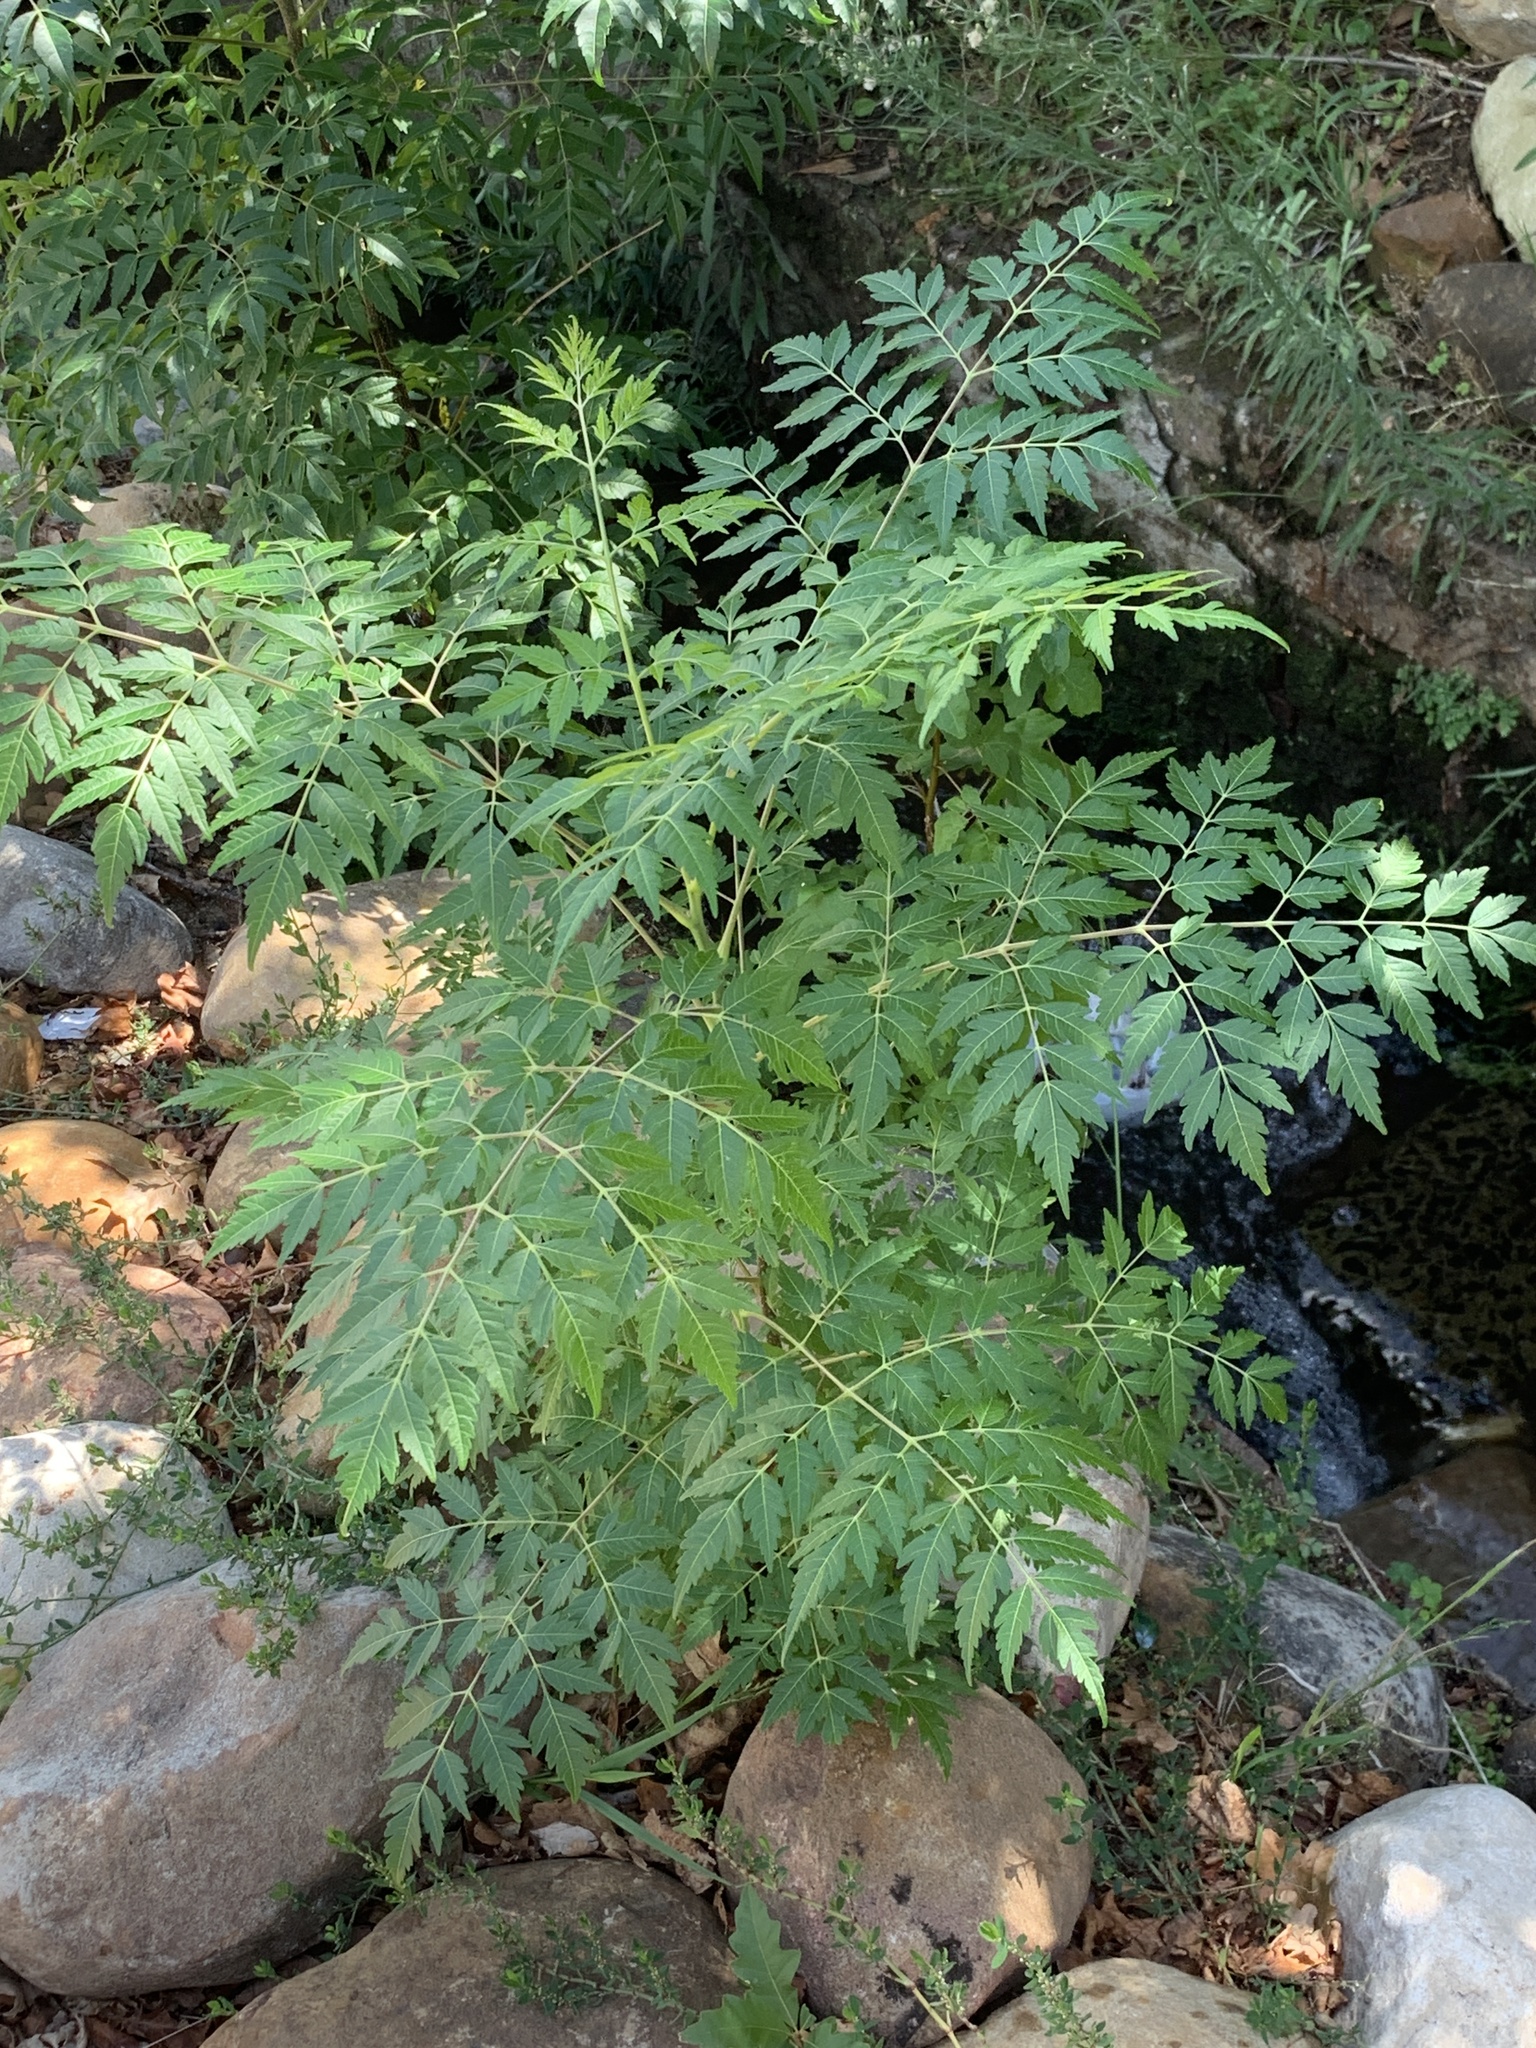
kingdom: Plantae
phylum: Tracheophyta
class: Magnoliopsida
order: Sapindales
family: Meliaceae
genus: Melia
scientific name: Melia azedarach
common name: Chinaberrytree
